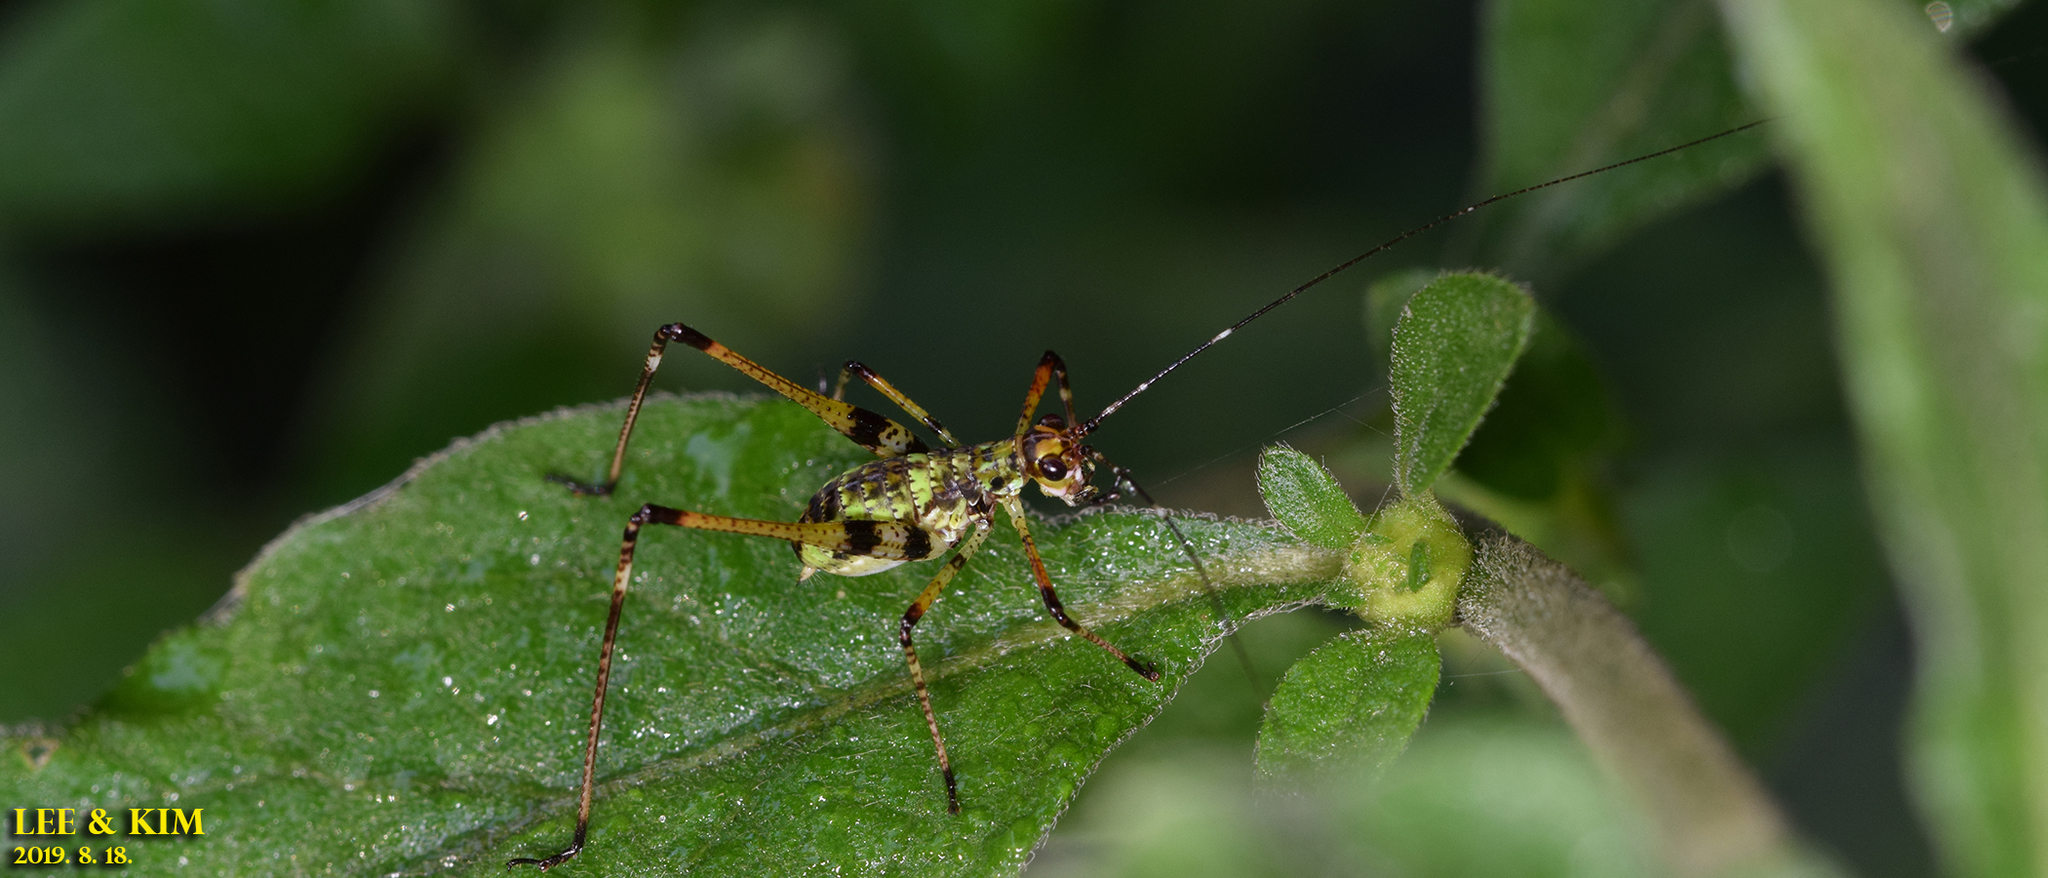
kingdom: Animalia
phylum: Arthropoda
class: Insecta
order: Orthoptera
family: Tettigoniidae
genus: Phaneroptera
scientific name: Phaneroptera nigroantennata
